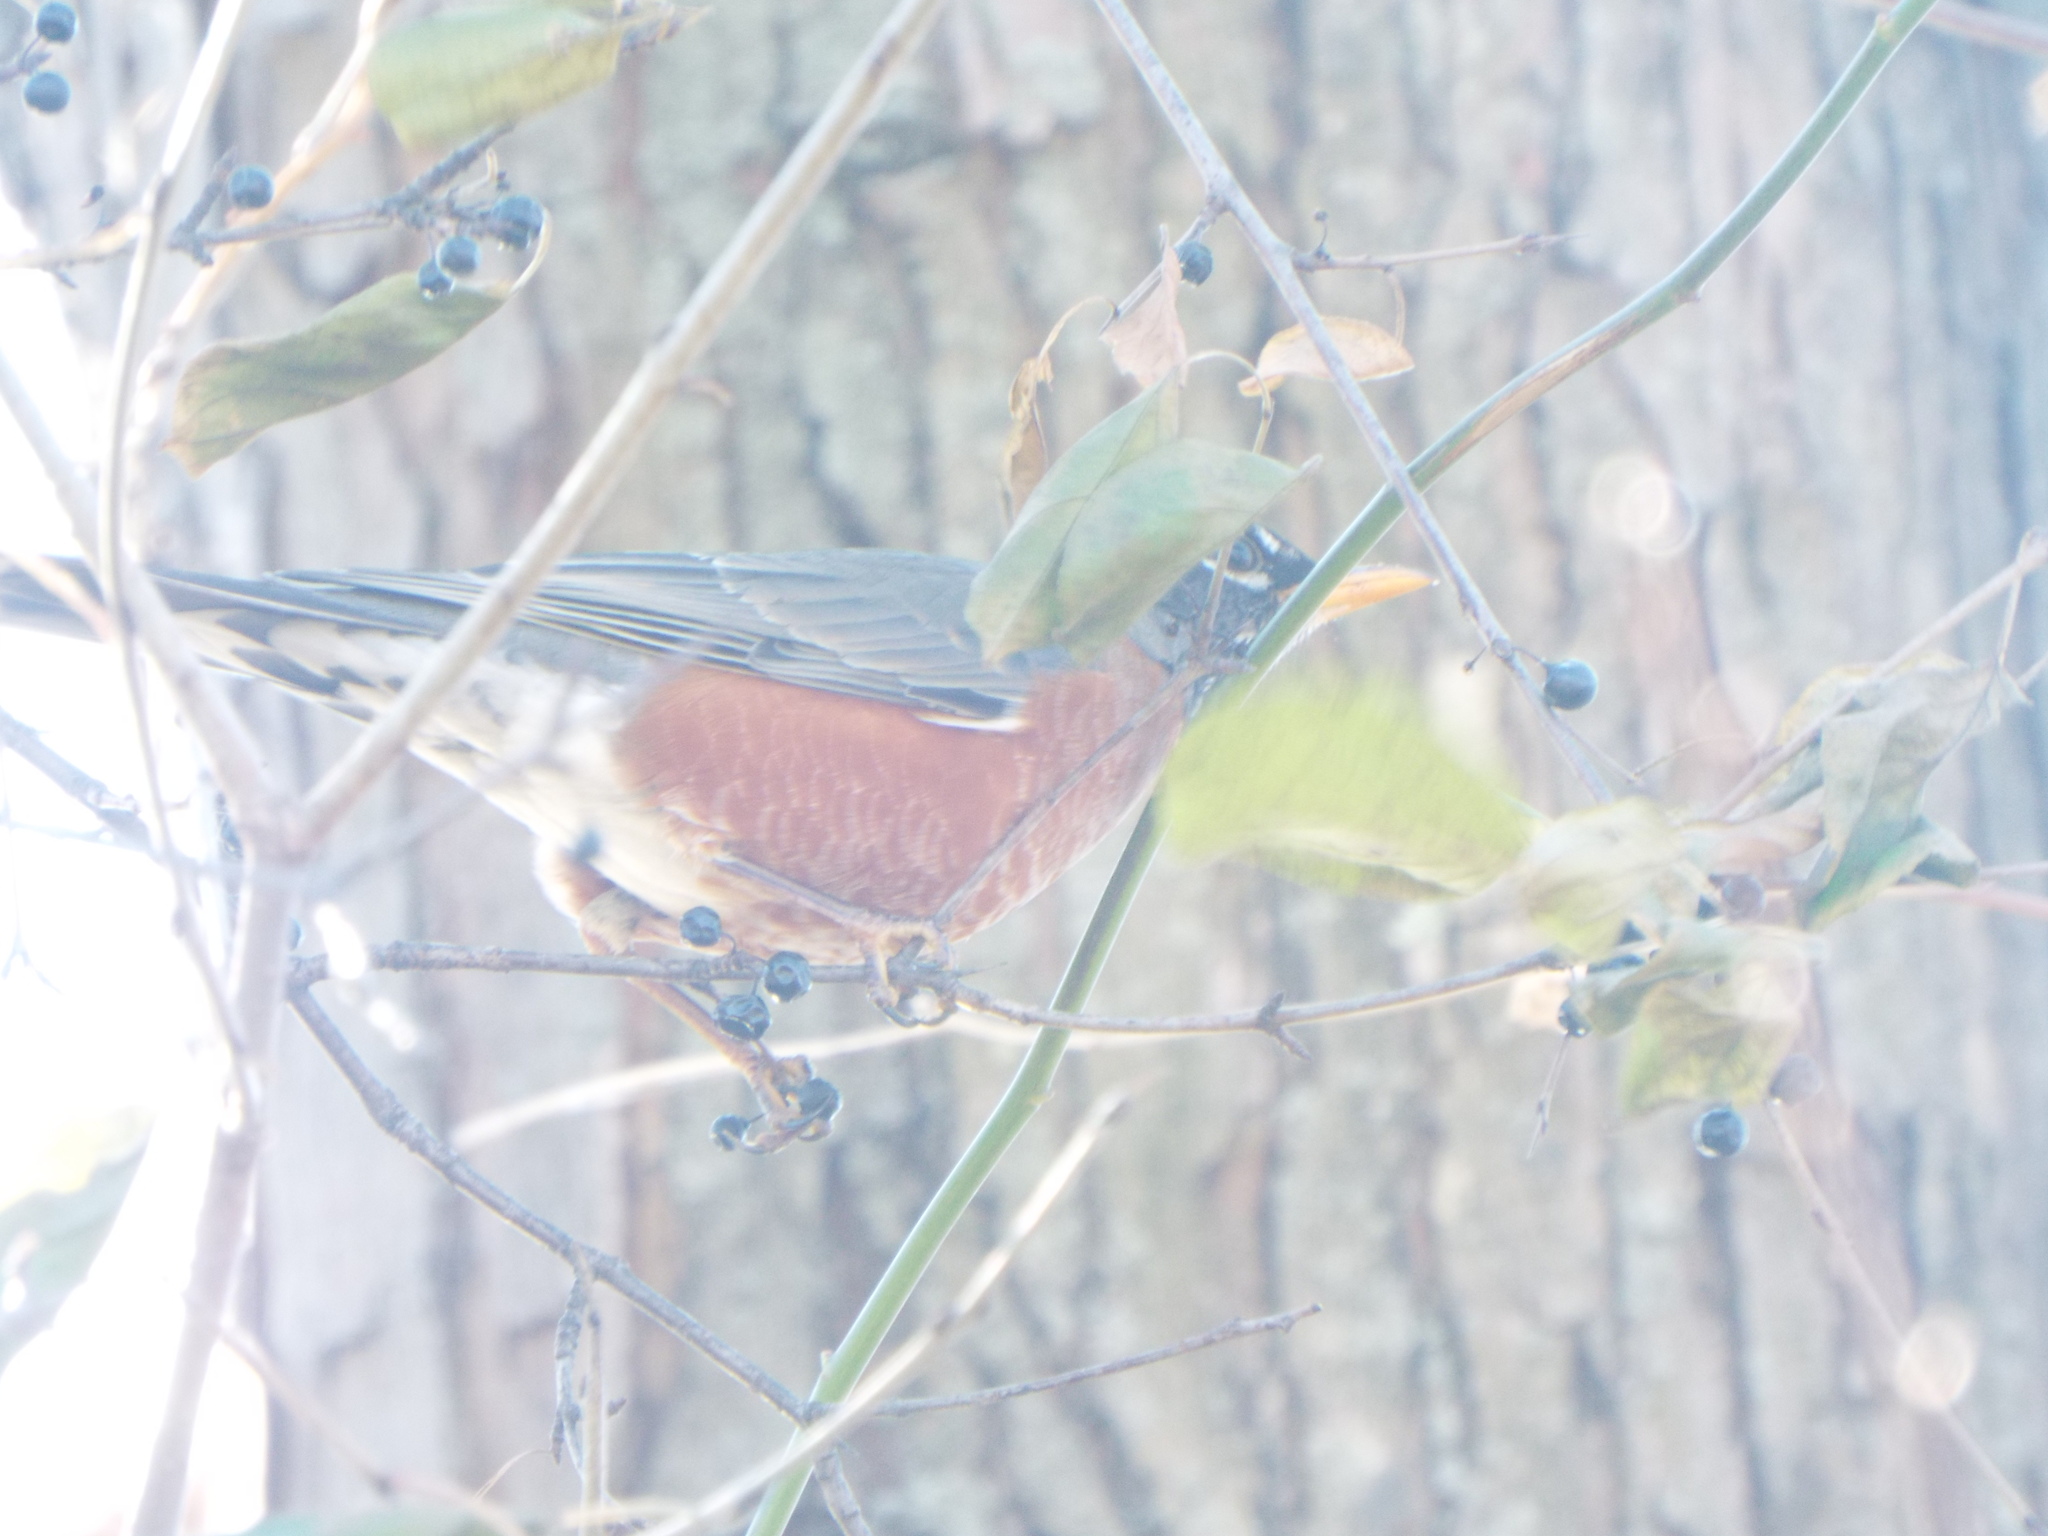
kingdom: Animalia
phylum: Chordata
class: Aves
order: Passeriformes
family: Turdidae
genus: Turdus
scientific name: Turdus migratorius
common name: American robin
